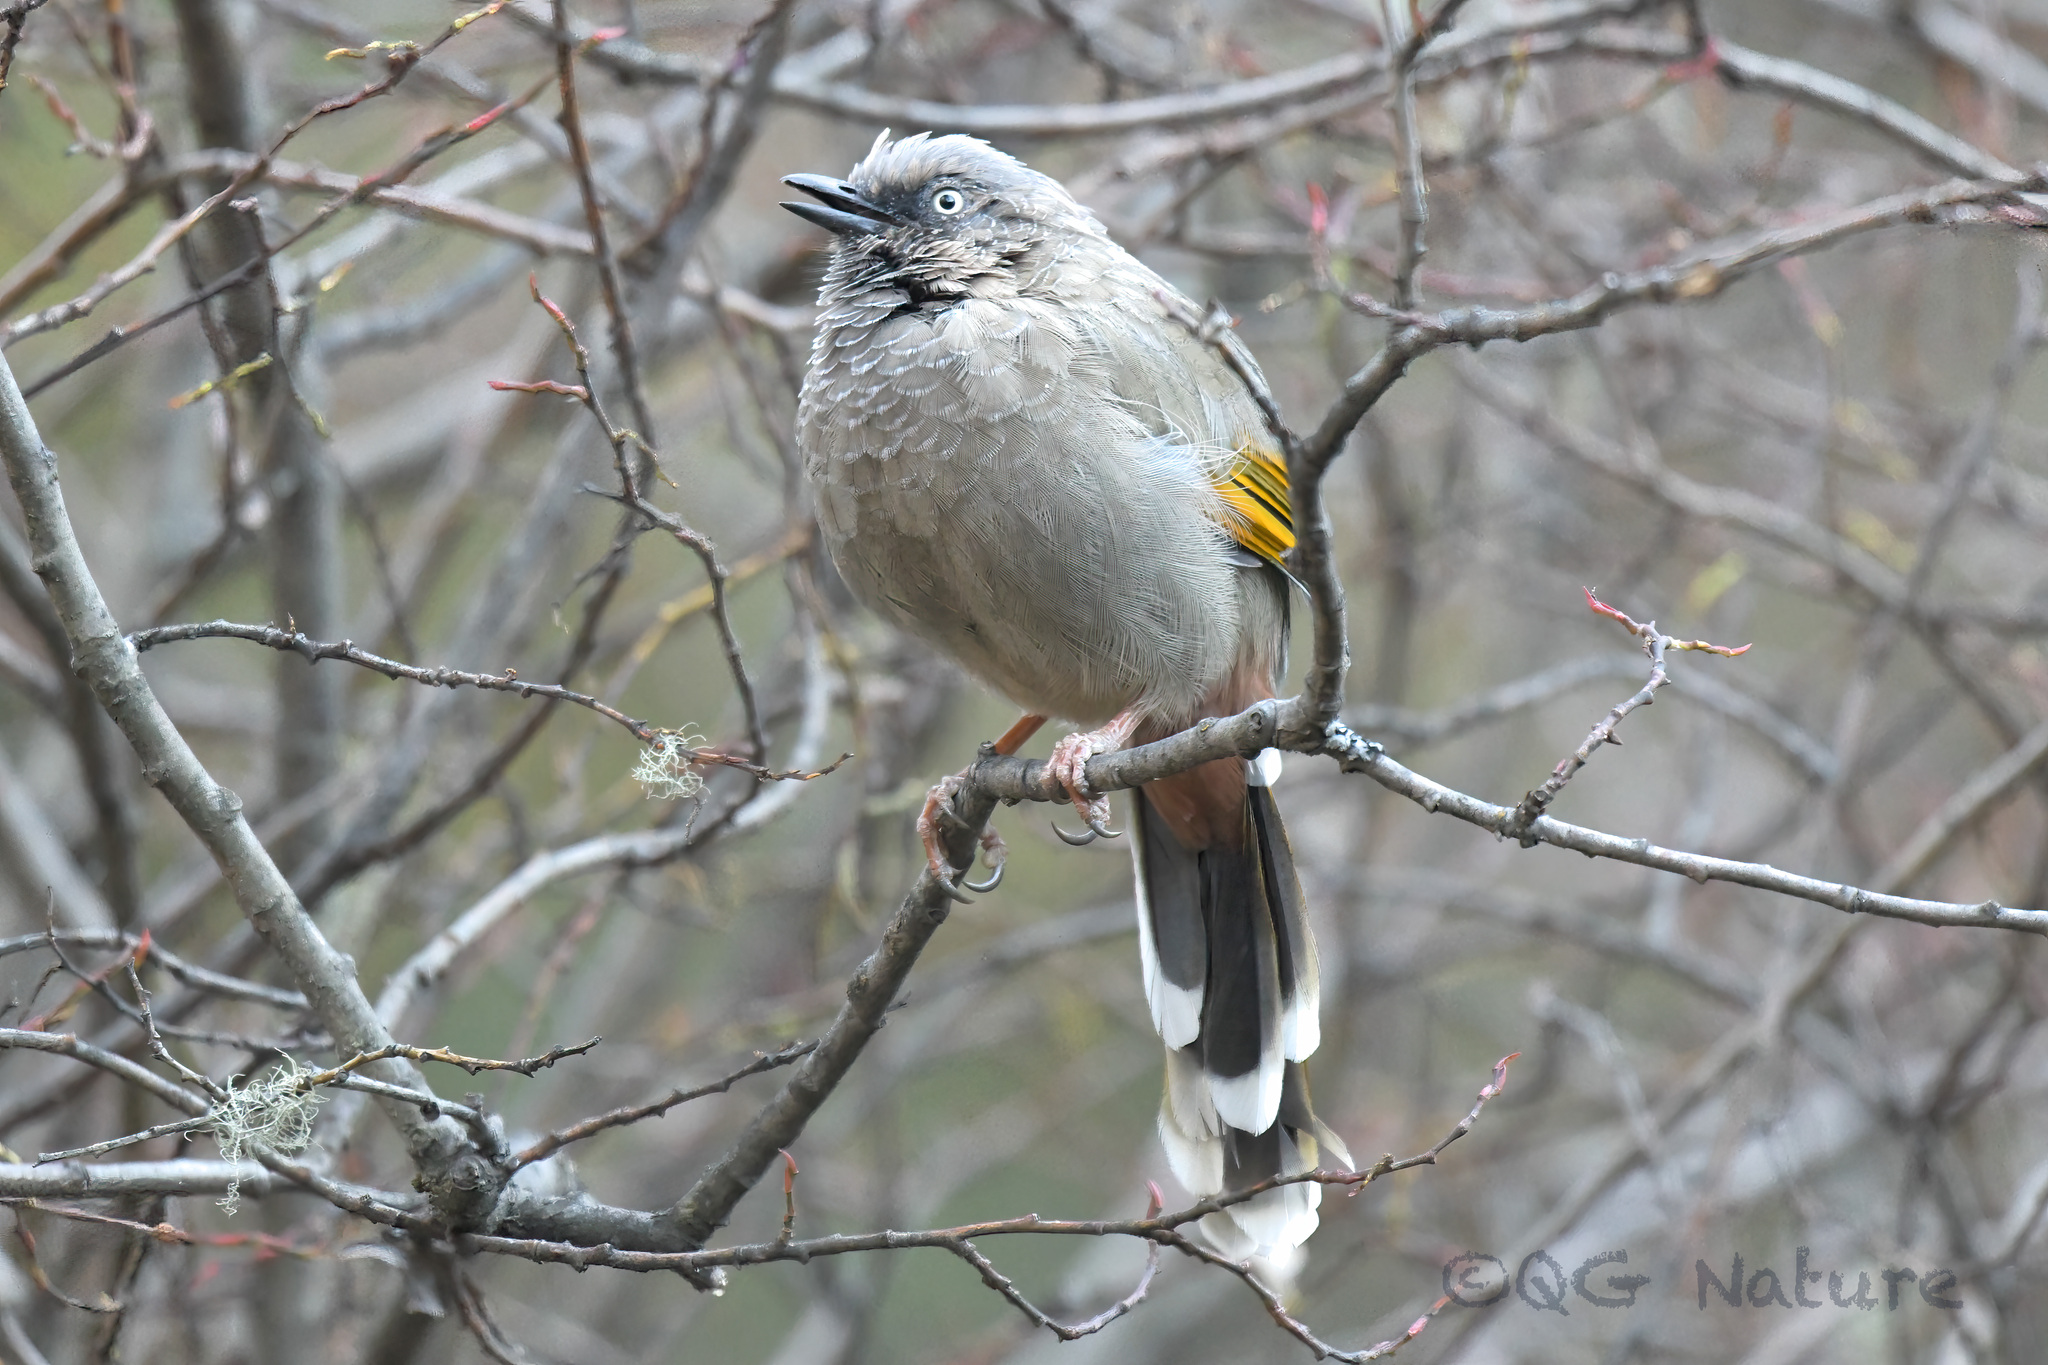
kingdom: Animalia
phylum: Chordata
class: Aves
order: Passeriformes
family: Leiothrichidae
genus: Trochalopteron
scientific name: Trochalopteron elliotii
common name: Elliot's laughingthrush
